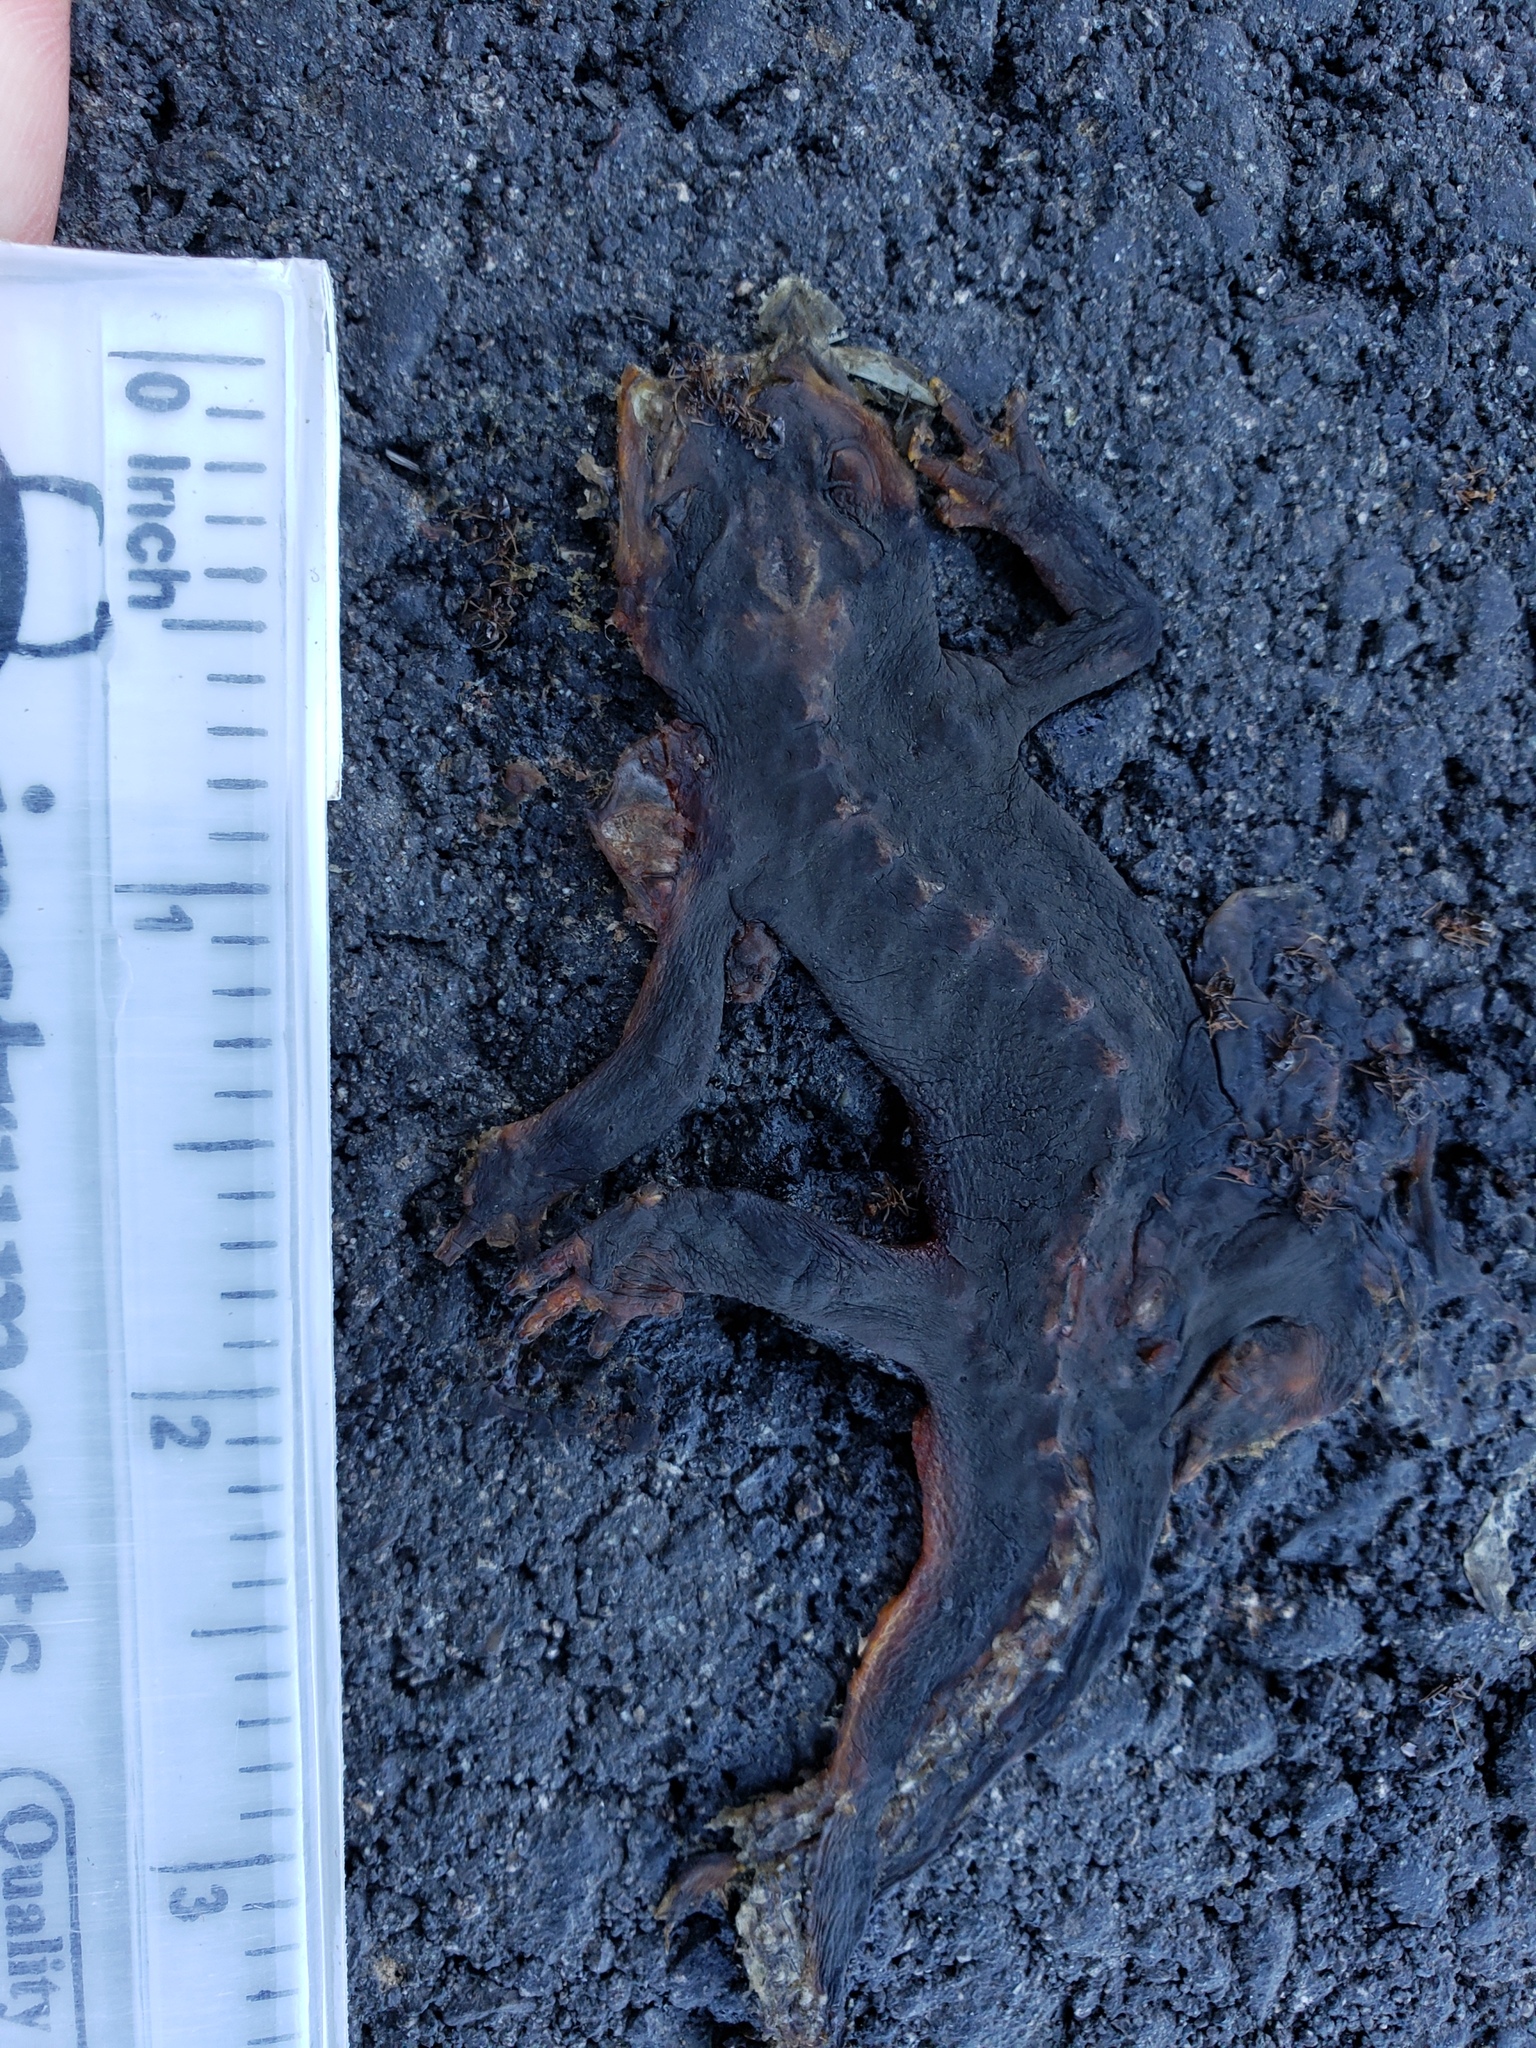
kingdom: Animalia
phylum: Chordata
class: Amphibia
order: Caudata
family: Salamandridae
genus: Taricha
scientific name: Taricha
